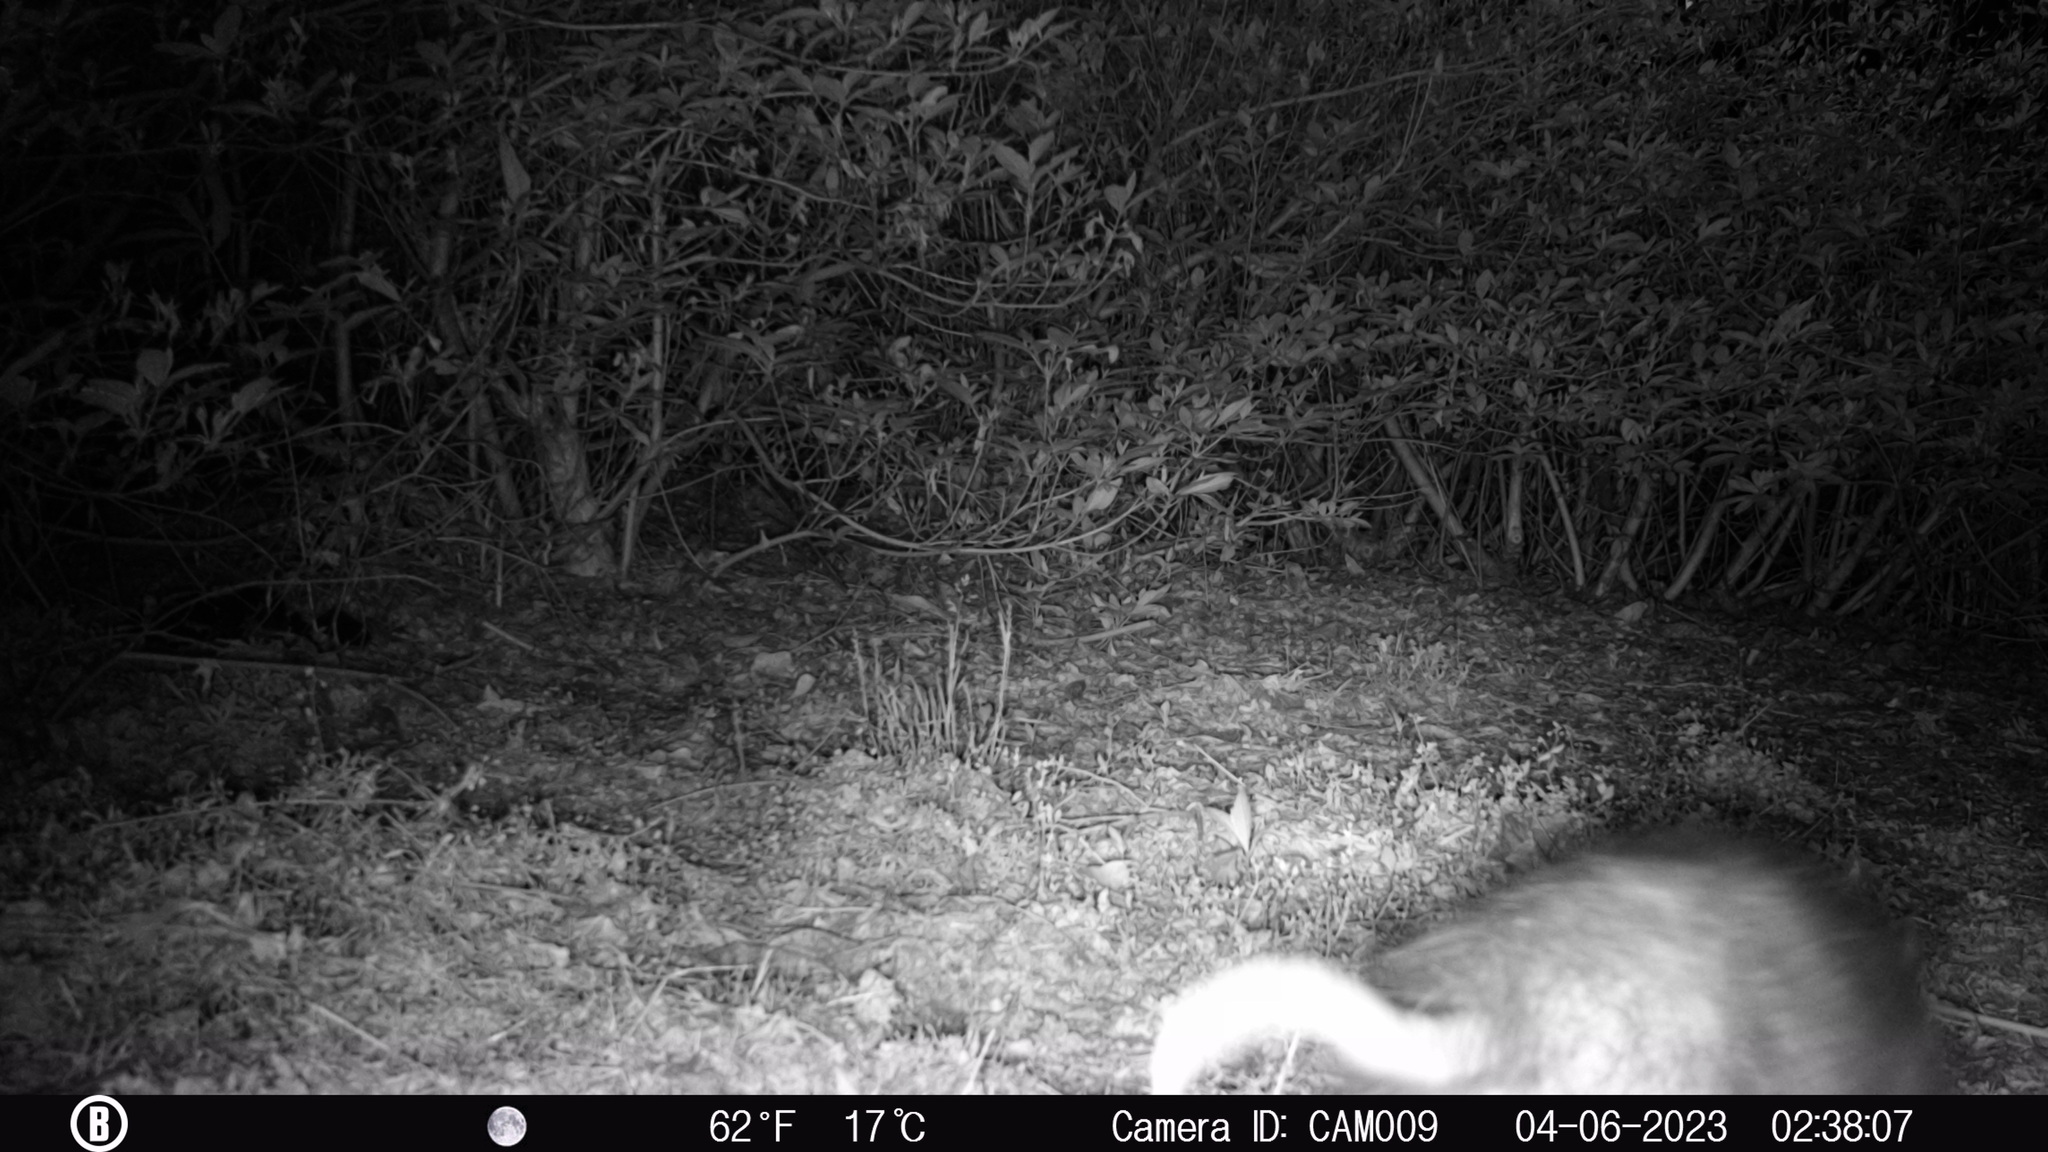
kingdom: Animalia
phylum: Chordata
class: Mammalia
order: Didelphimorphia
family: Didelphidae
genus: Didelphis
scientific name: Didelphis virginiana
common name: Virginia opossum
